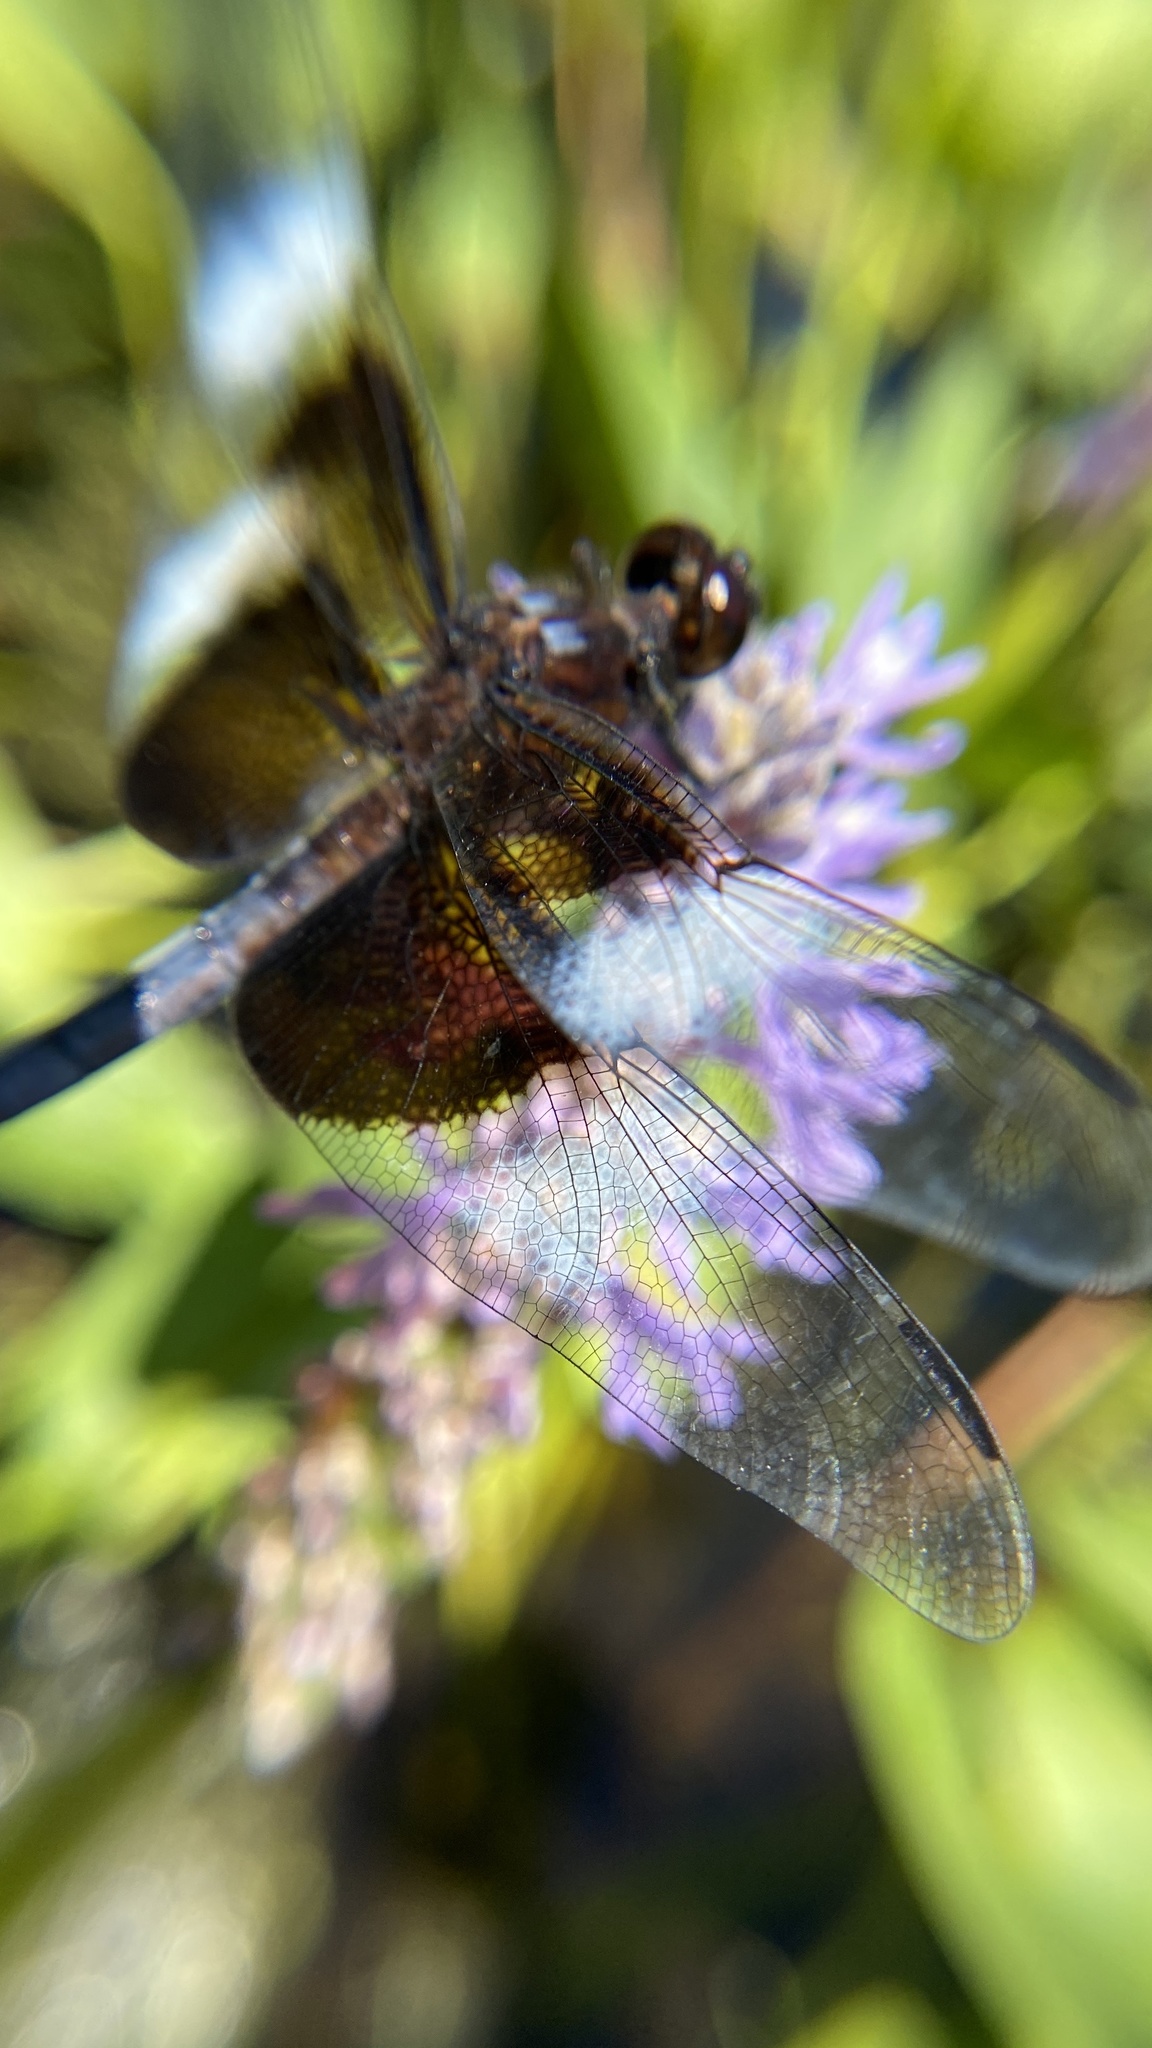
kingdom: Animalia
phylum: Arthropoda
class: Insecta
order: Odonata
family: Libellulidae
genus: Libellula
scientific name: Libellula luctuosa
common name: Widow skimmer
